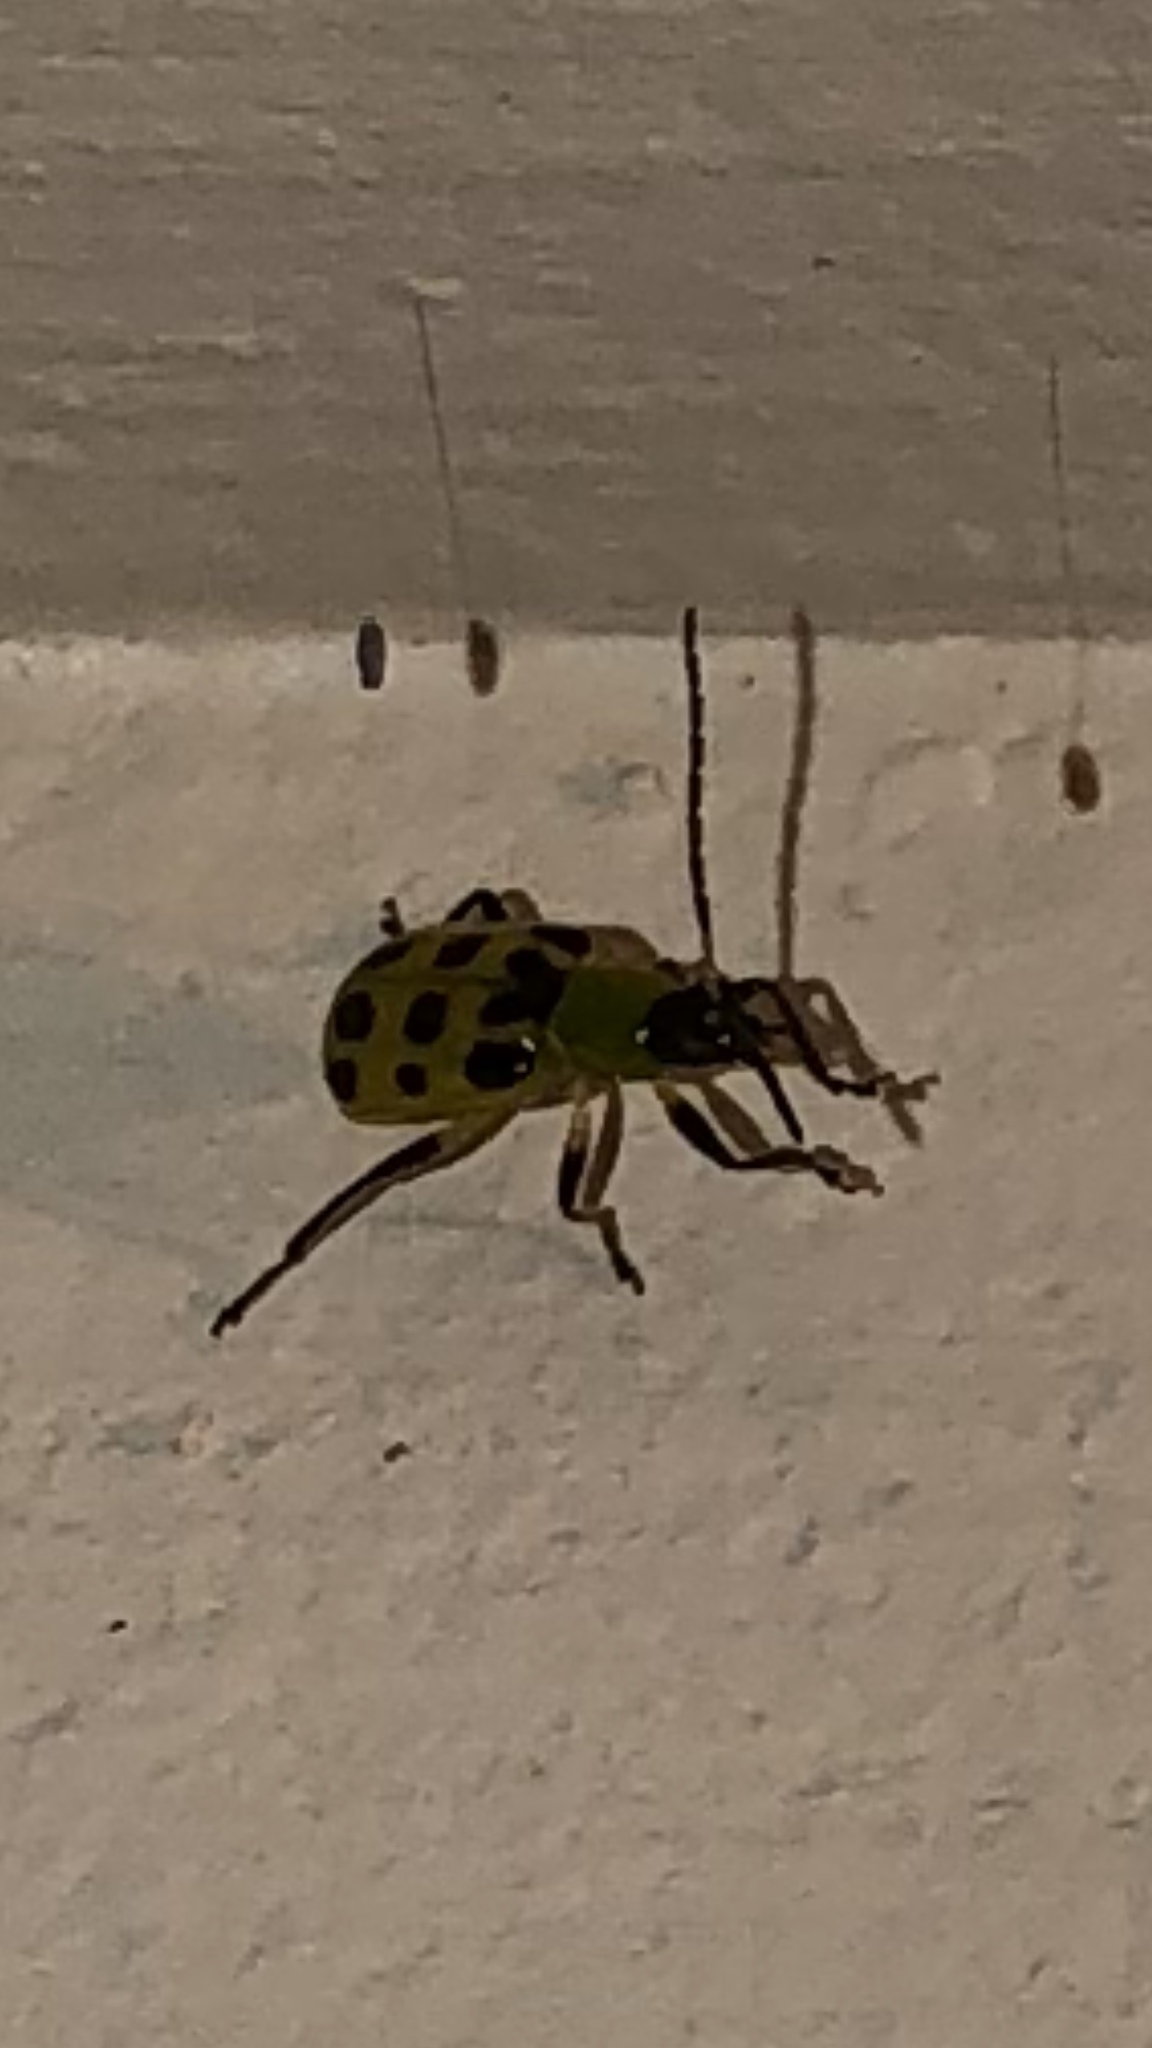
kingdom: Animalia
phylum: Arthropoda
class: Insecta
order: Coleoptera
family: Chrysomelidae
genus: Diabrotica
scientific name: Diabrotica undecimpunctata
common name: Spotted cucumber beetle
